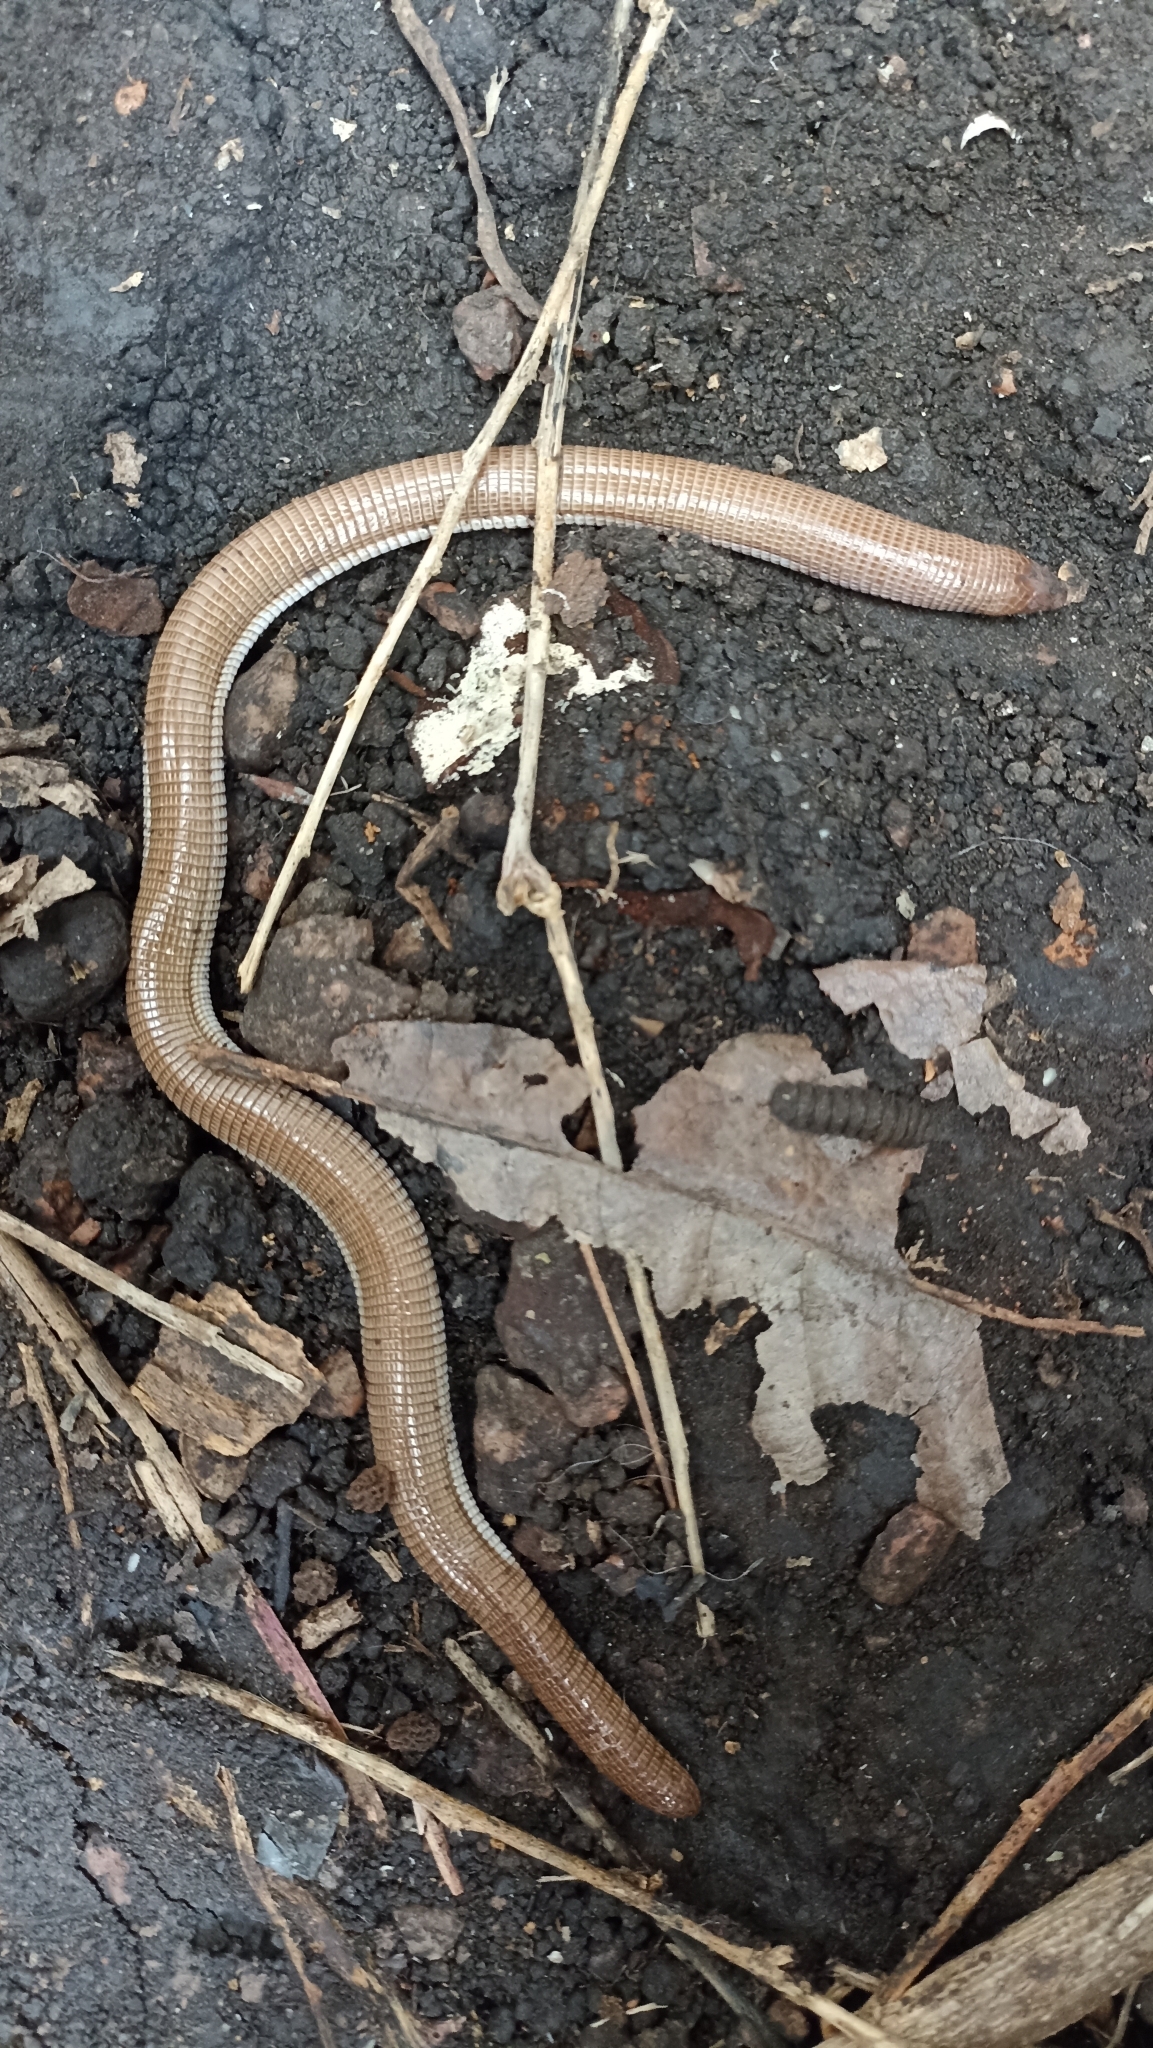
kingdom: Animalia
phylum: Chordata
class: Squamata
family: Amphisbaenidae
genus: Amphisbaena
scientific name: Amphisbaena darwinii
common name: Darwin's ringed worm lizard
